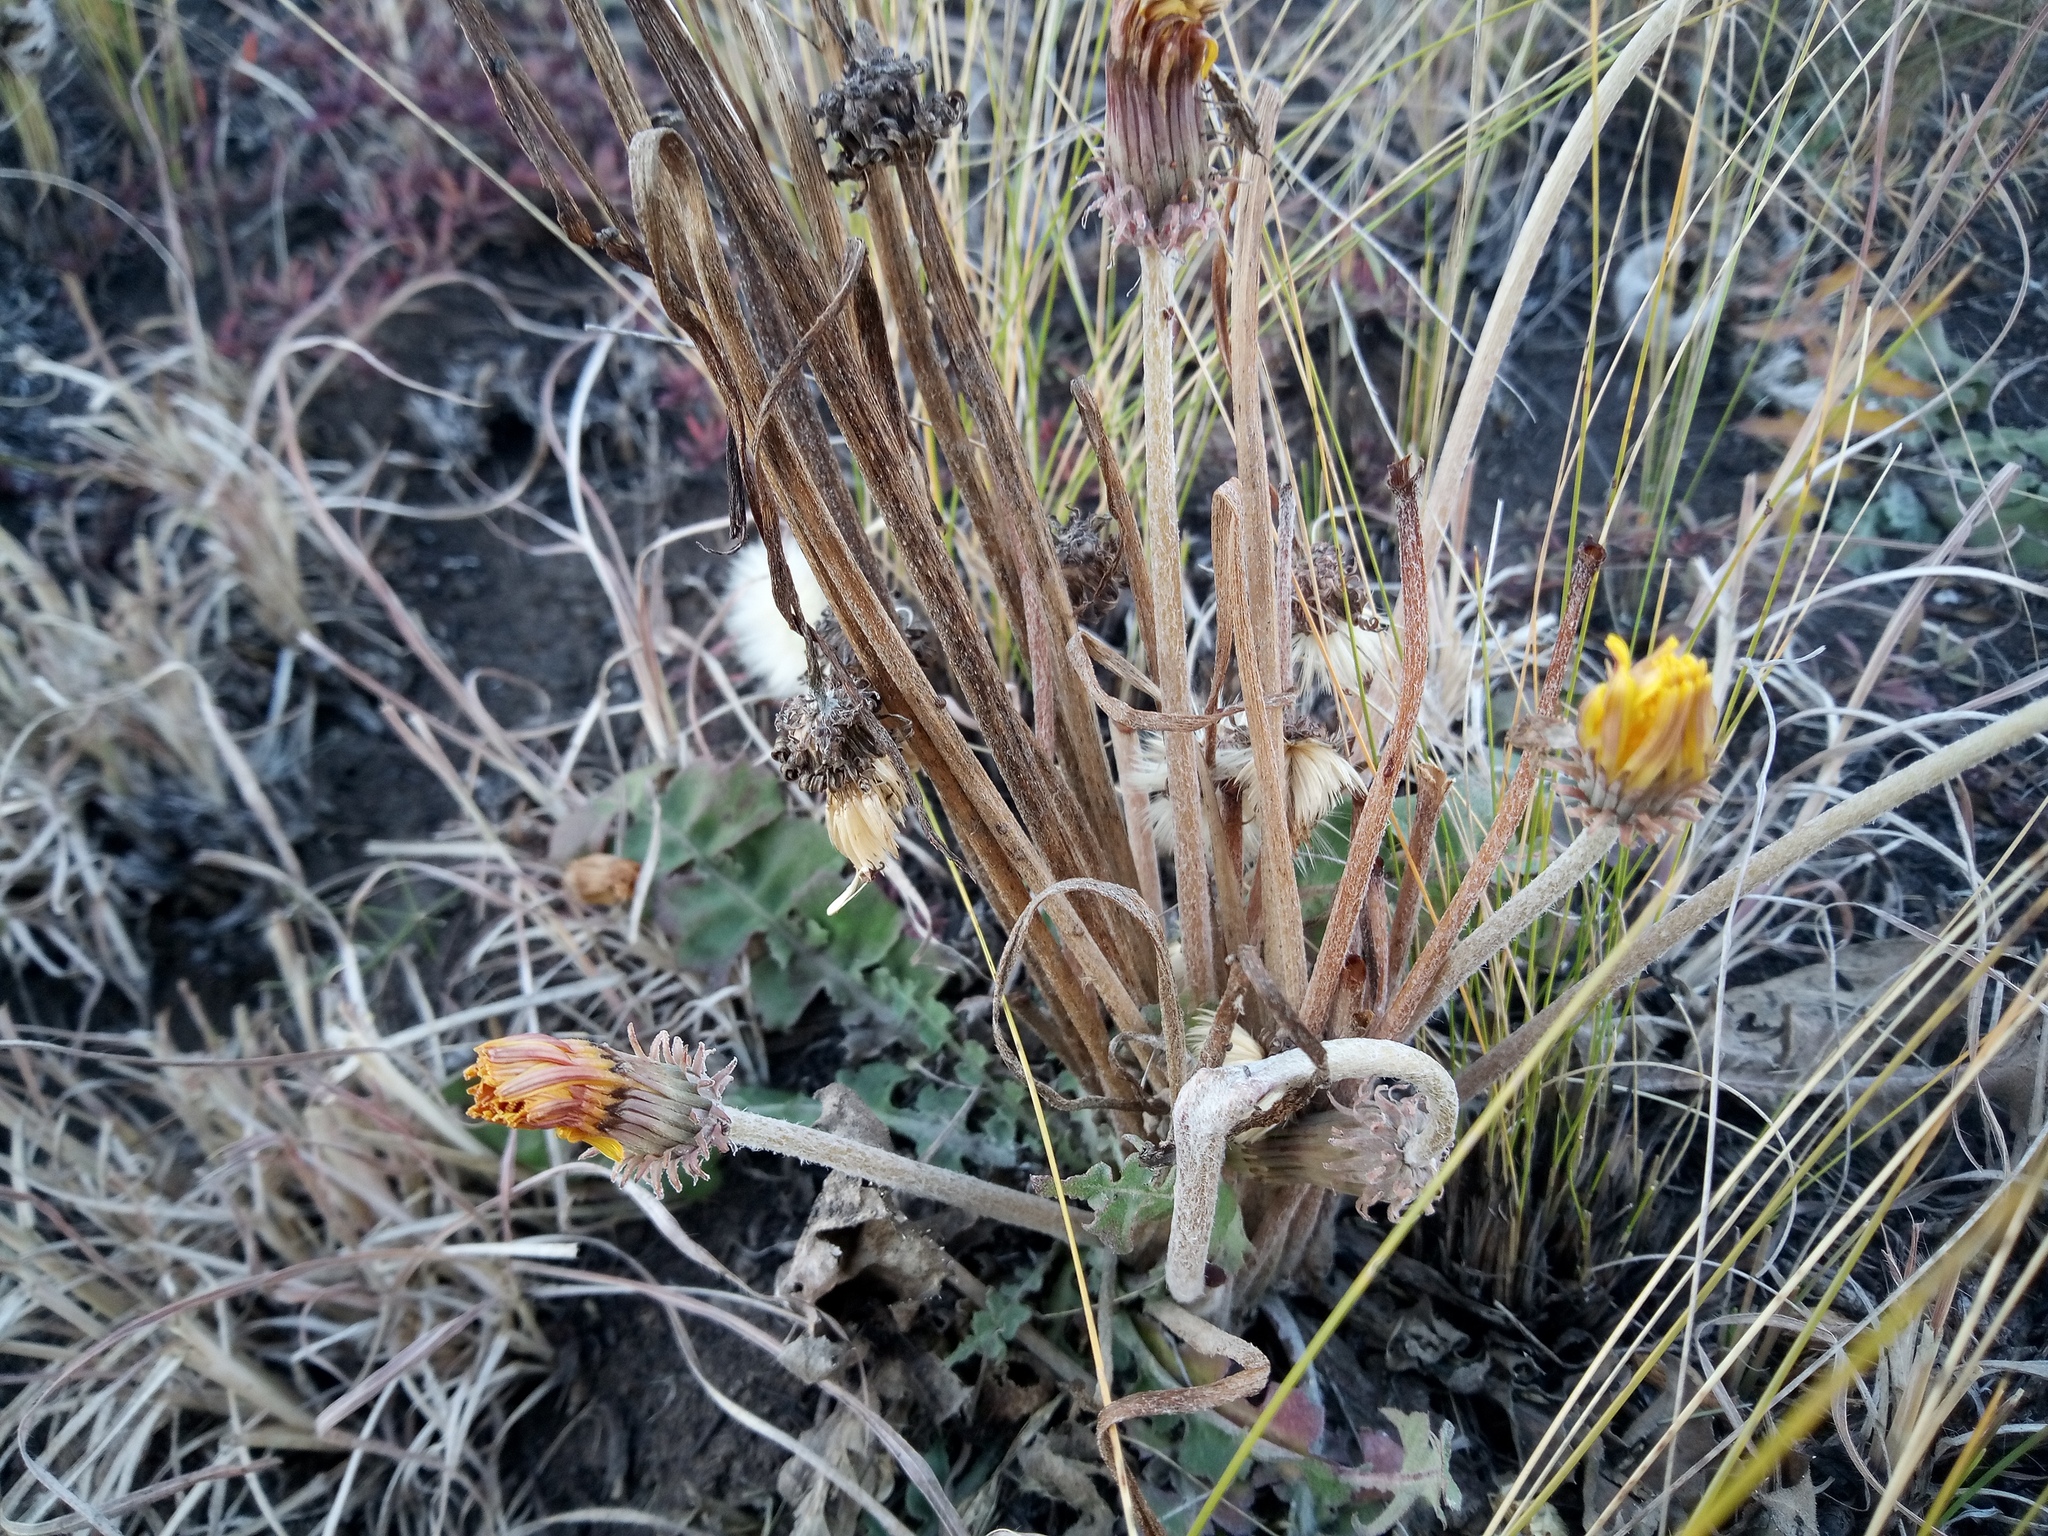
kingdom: Plantae
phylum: Tracheophyta
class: Magnoliopsida
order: Asterales
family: Asteraceae
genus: Taraxacum
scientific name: Taraxacum serotinum
